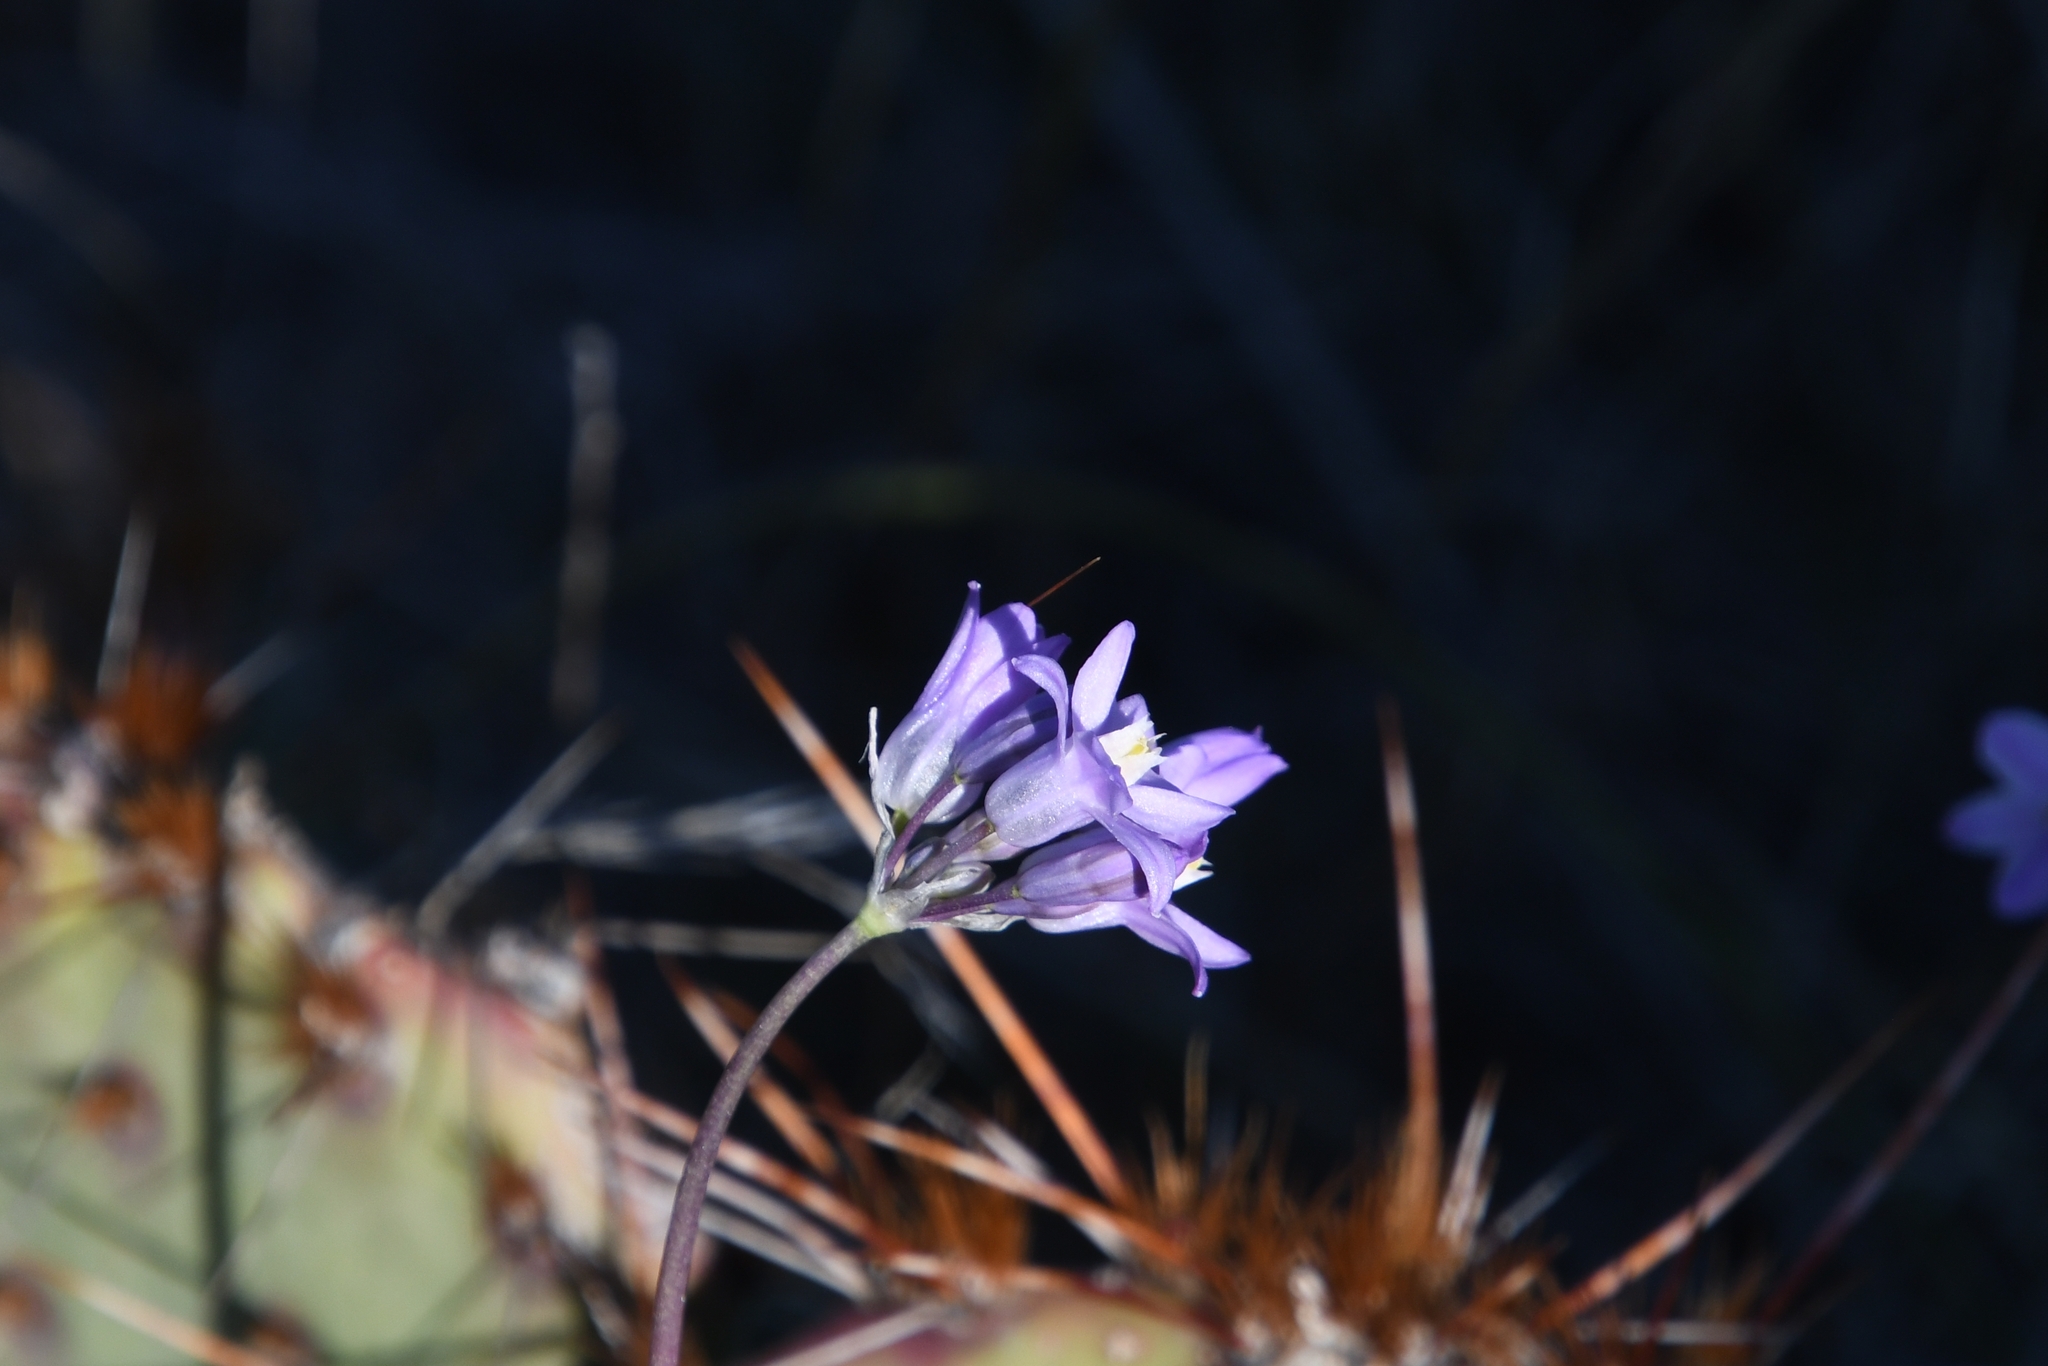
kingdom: Plantae
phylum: Tracheophyta
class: Liliopsida
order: Asparagales
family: Asparagaceae
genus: Dipterostemon
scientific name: Dipterostemon capitatus
